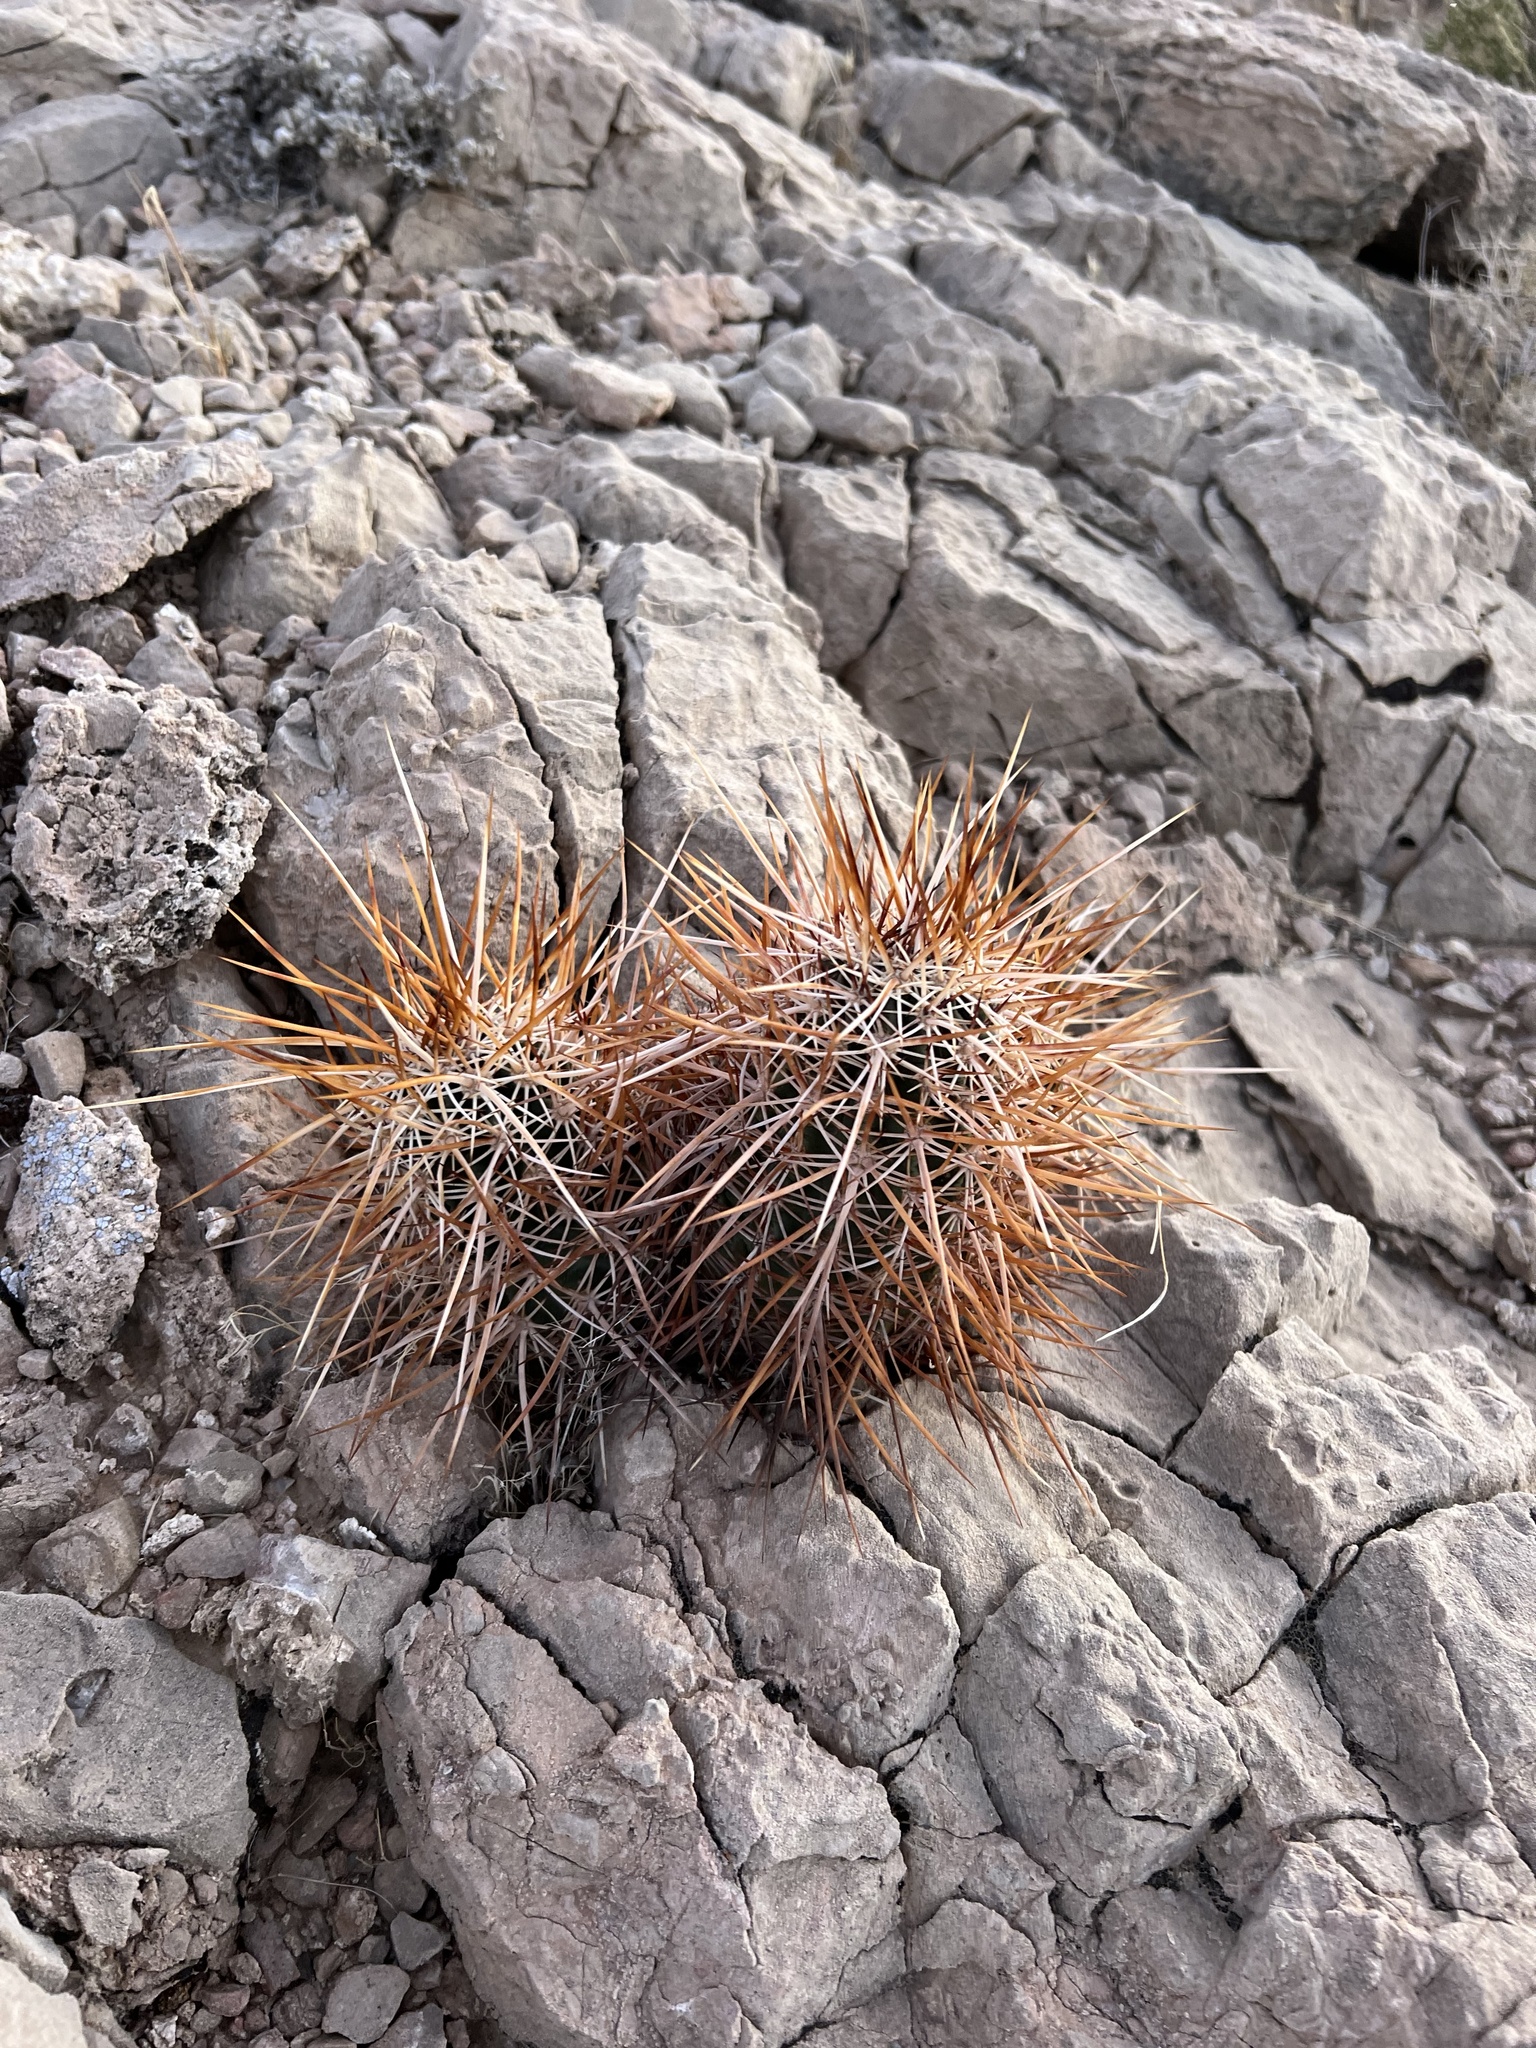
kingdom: Plantae
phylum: Tracheophyta
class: Magnoliopsida
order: Caryophyllales
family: Cactaceae
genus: Echinocereus
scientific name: Echinocereus engelmannii
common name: Engelmann's hedgehog cactus
